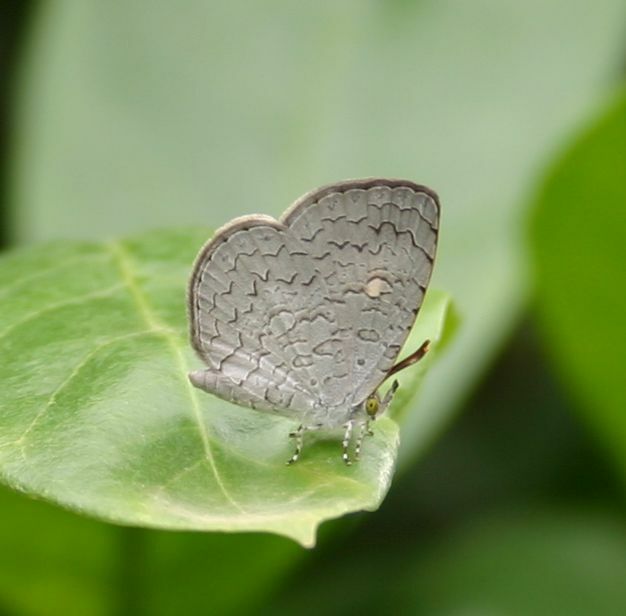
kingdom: Animalia
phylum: Arthropoda
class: Insecta
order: Lepidoptera
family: Lycaenidae
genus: Spalgis
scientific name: Spalgis epius
